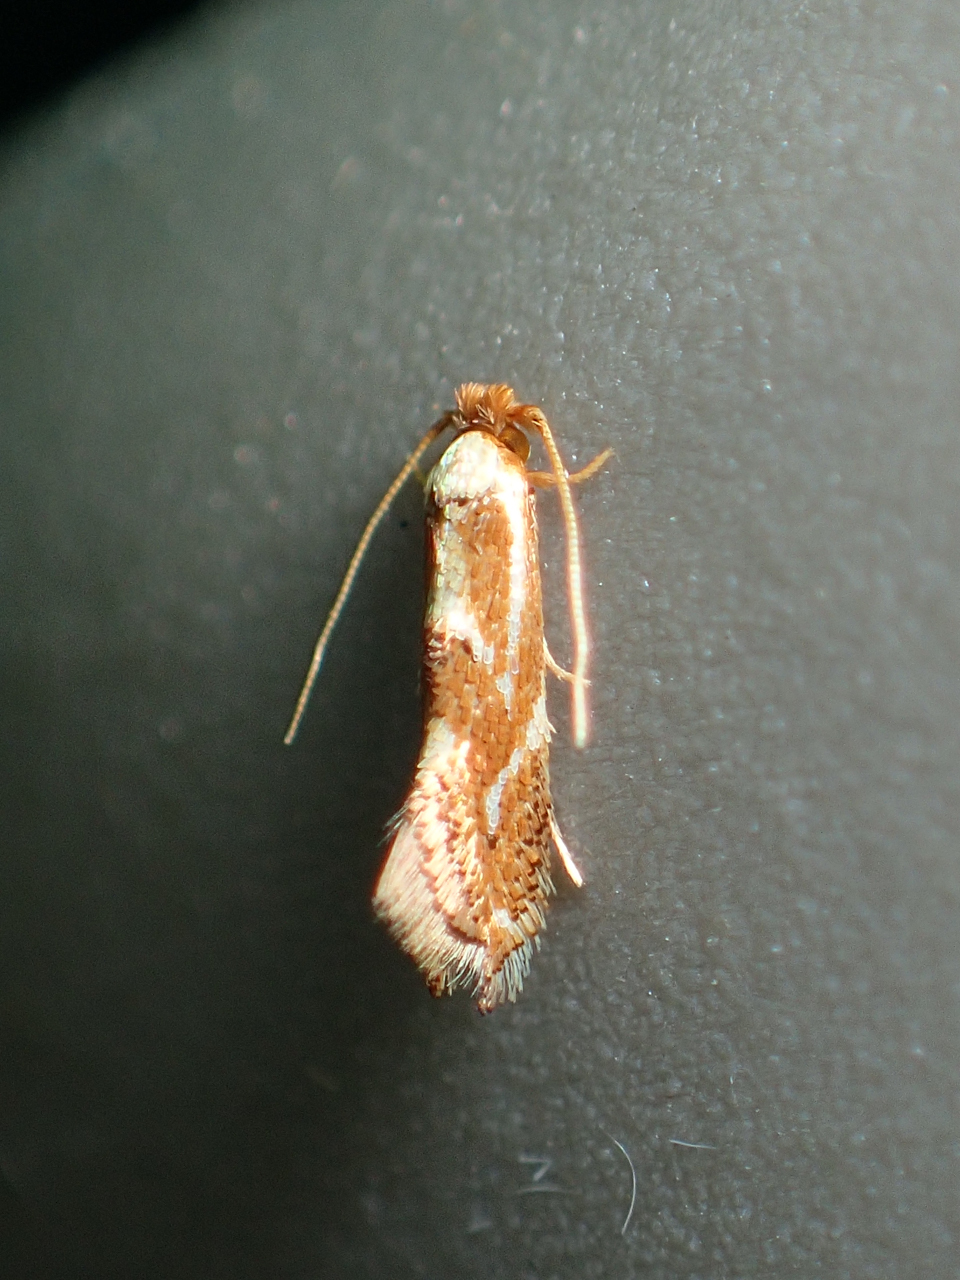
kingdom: Animalia
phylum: Arthropoda
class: Insecta
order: Lepidoptera
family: Lyonetiidae
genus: Philonome
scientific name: Philonome clemensella
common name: Clemen's philonome moth
